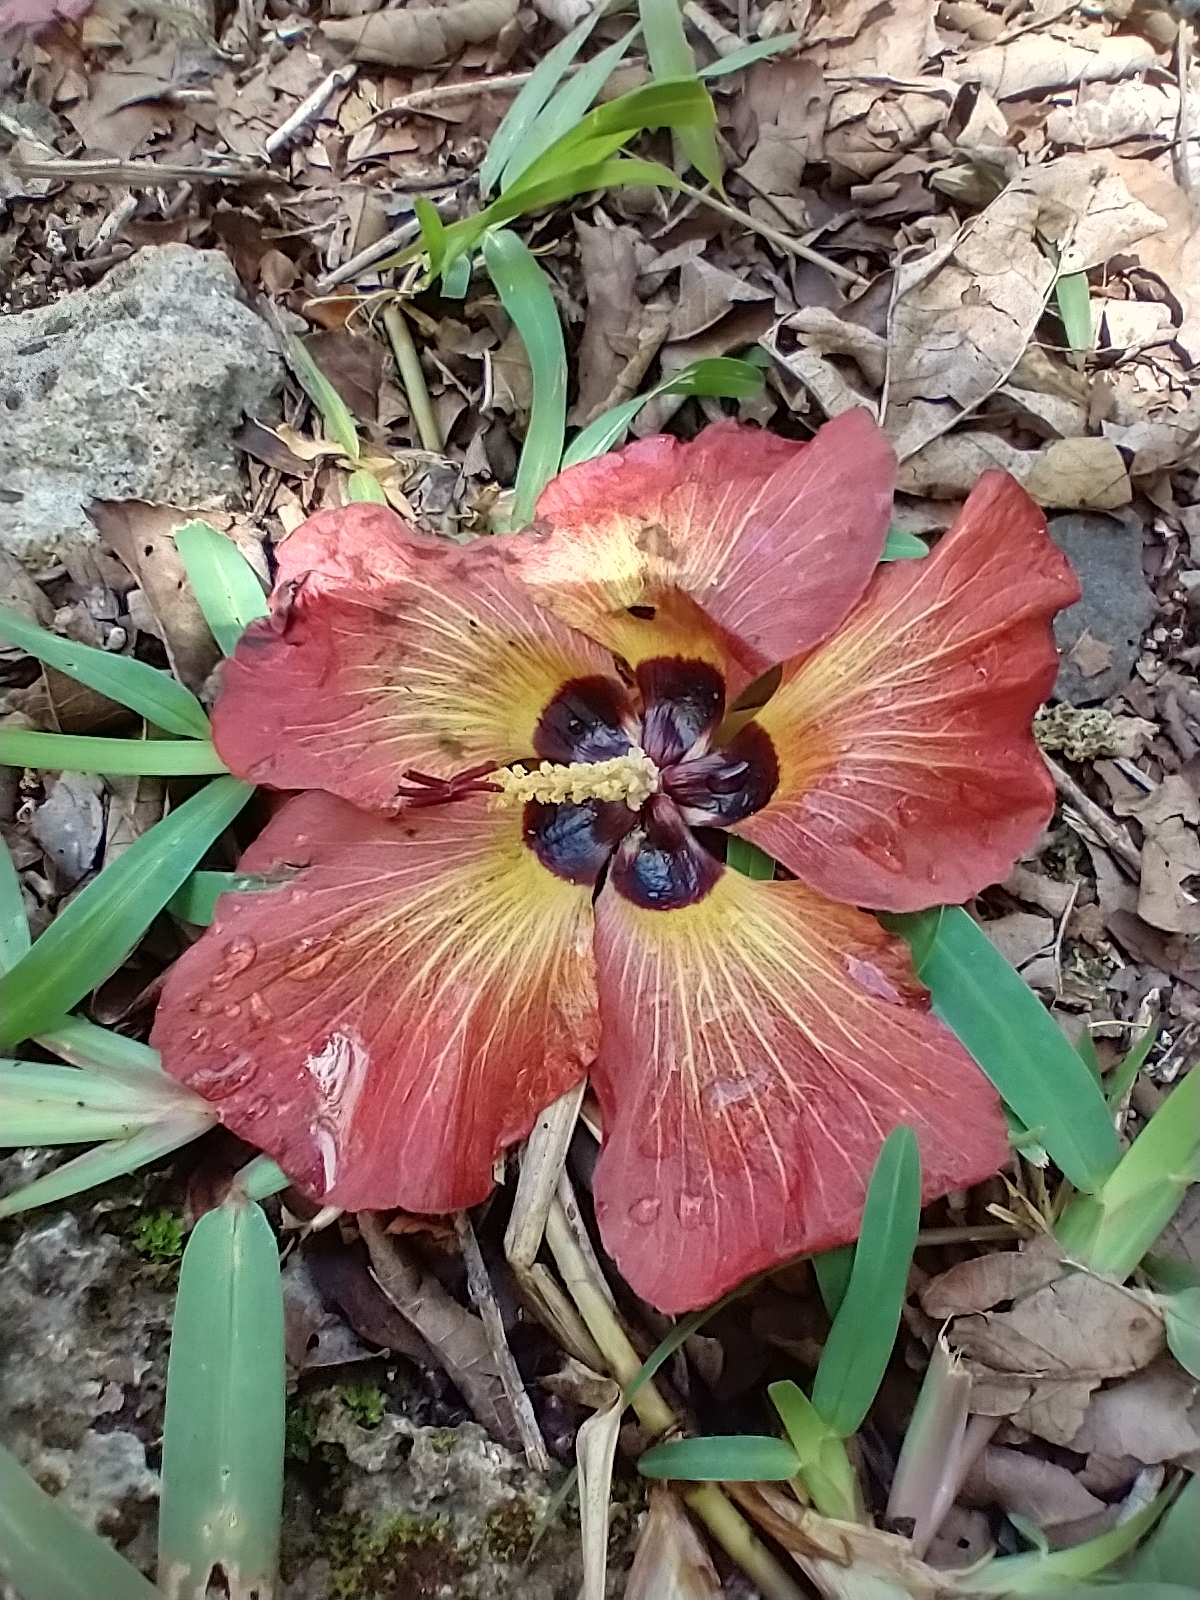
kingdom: Plantae
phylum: Tracheophyta
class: Magnoliopsida
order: Malvales
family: Malvaceae
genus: Talipariti
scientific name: Talipariti tiliaceum
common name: Sea hibiscus
